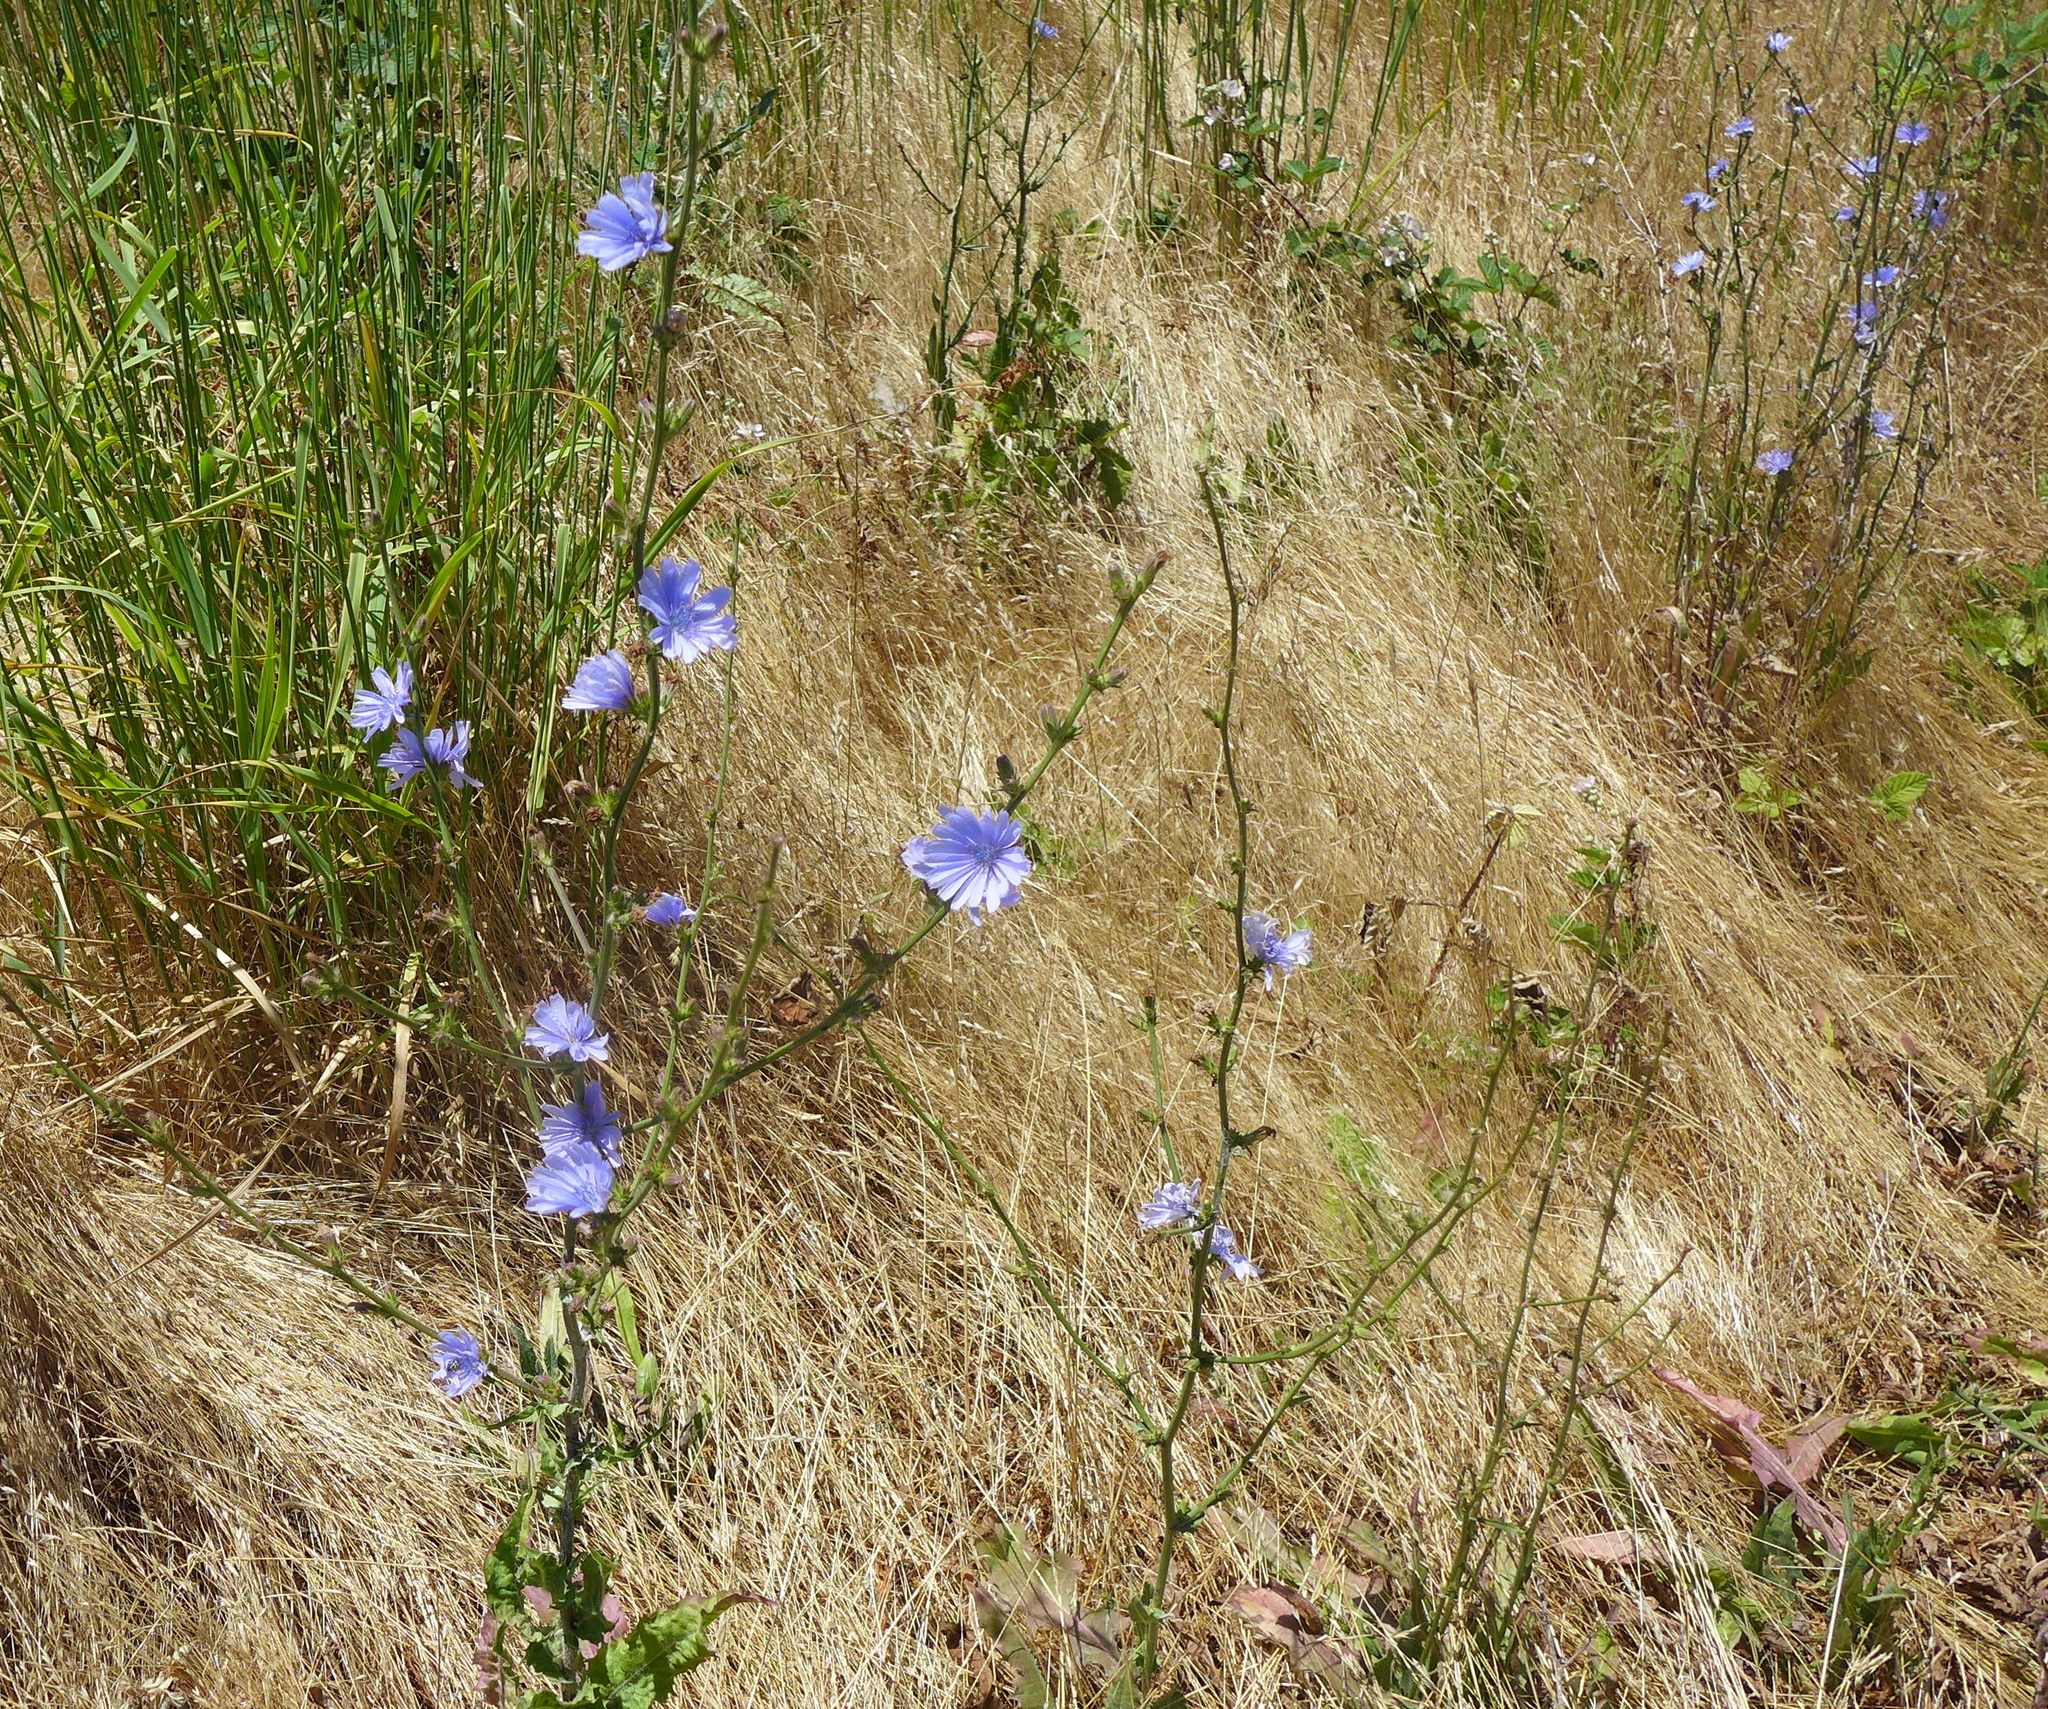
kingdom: Plantae
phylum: Tracheophyta
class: Magnoliopsida
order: Asterales
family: Asteraceae
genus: Cichorium
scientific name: Cichorium intybus
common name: Chicory
